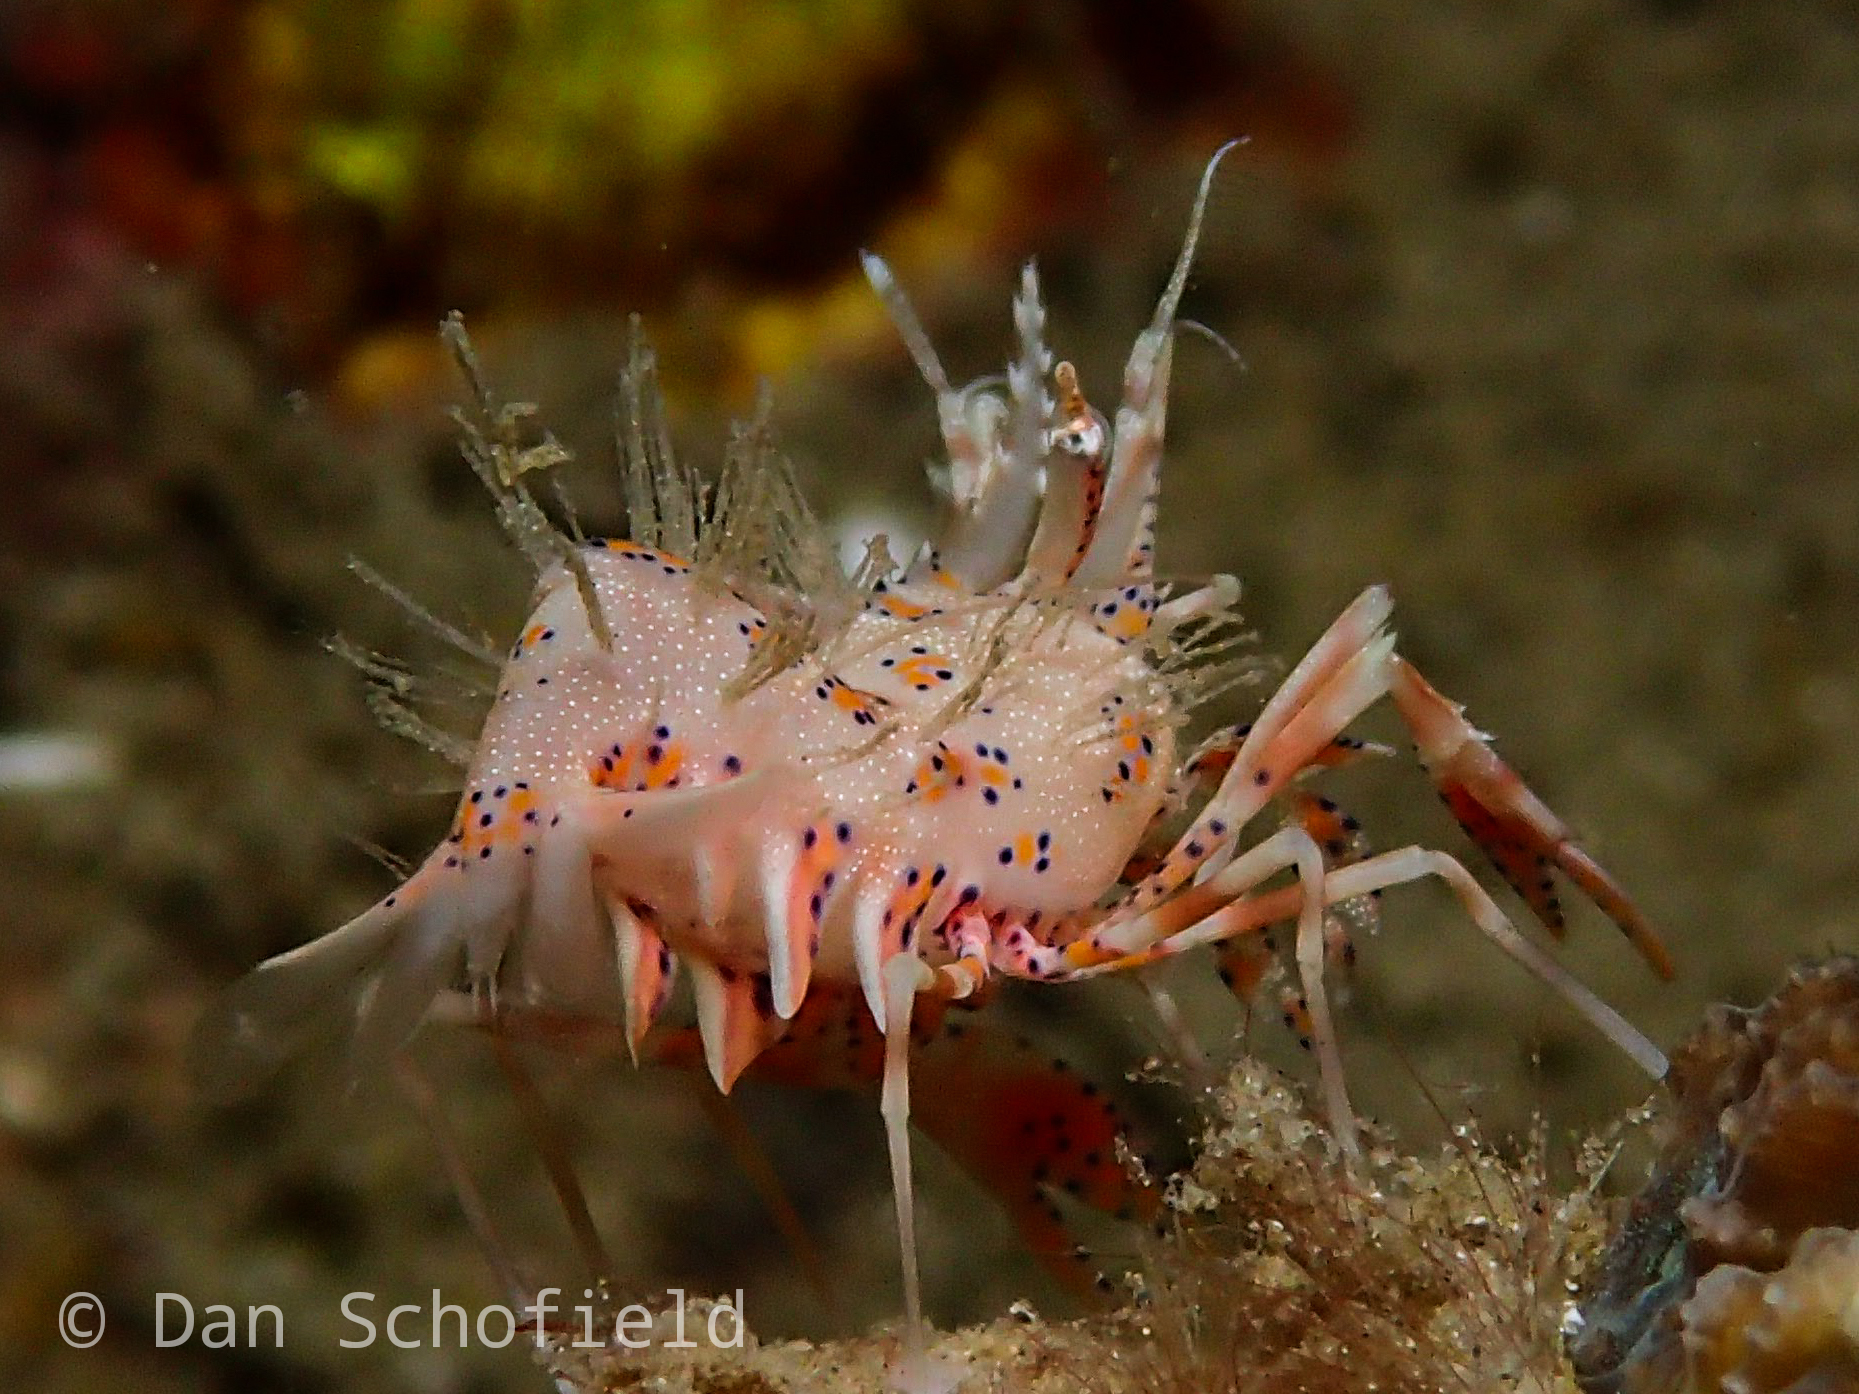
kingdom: Animalia
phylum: Arthropoda
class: Malacostraca
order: Decapoda
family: Palaemonidae
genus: Phyllognathia
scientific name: Phyllognathia ceratophthalma
